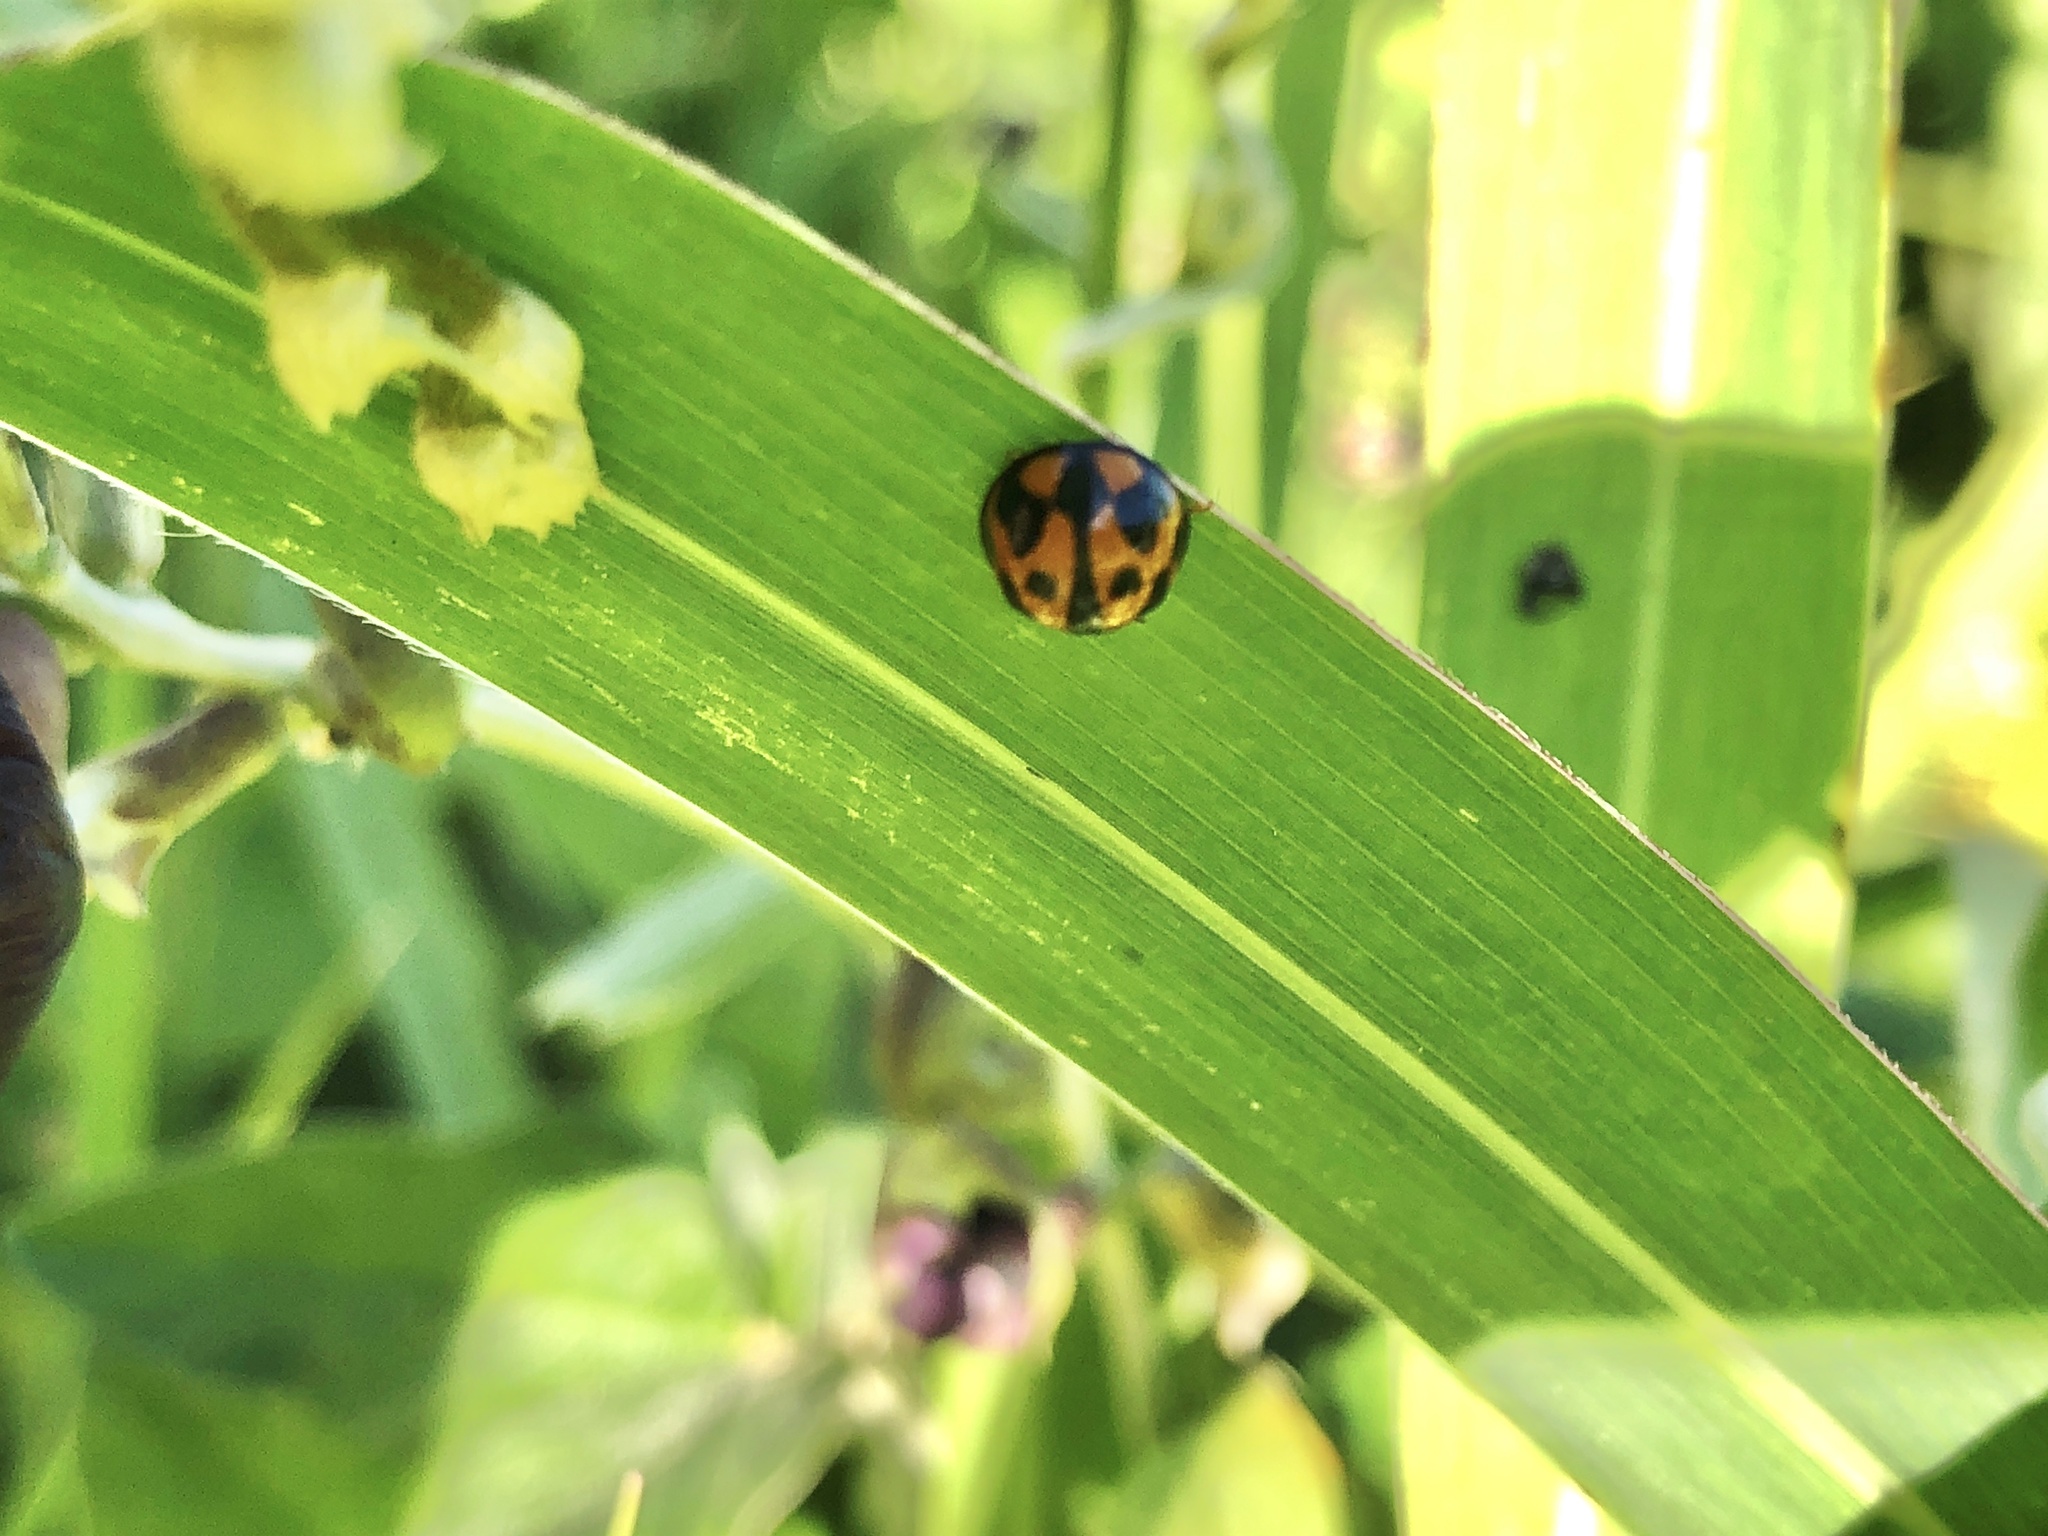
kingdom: Animalia
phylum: Arthropoda
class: Insecta
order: Coleoptera
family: Coccinellidae
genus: Coelophora
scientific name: Coelophora inaequalis
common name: Common australian lady beetle
